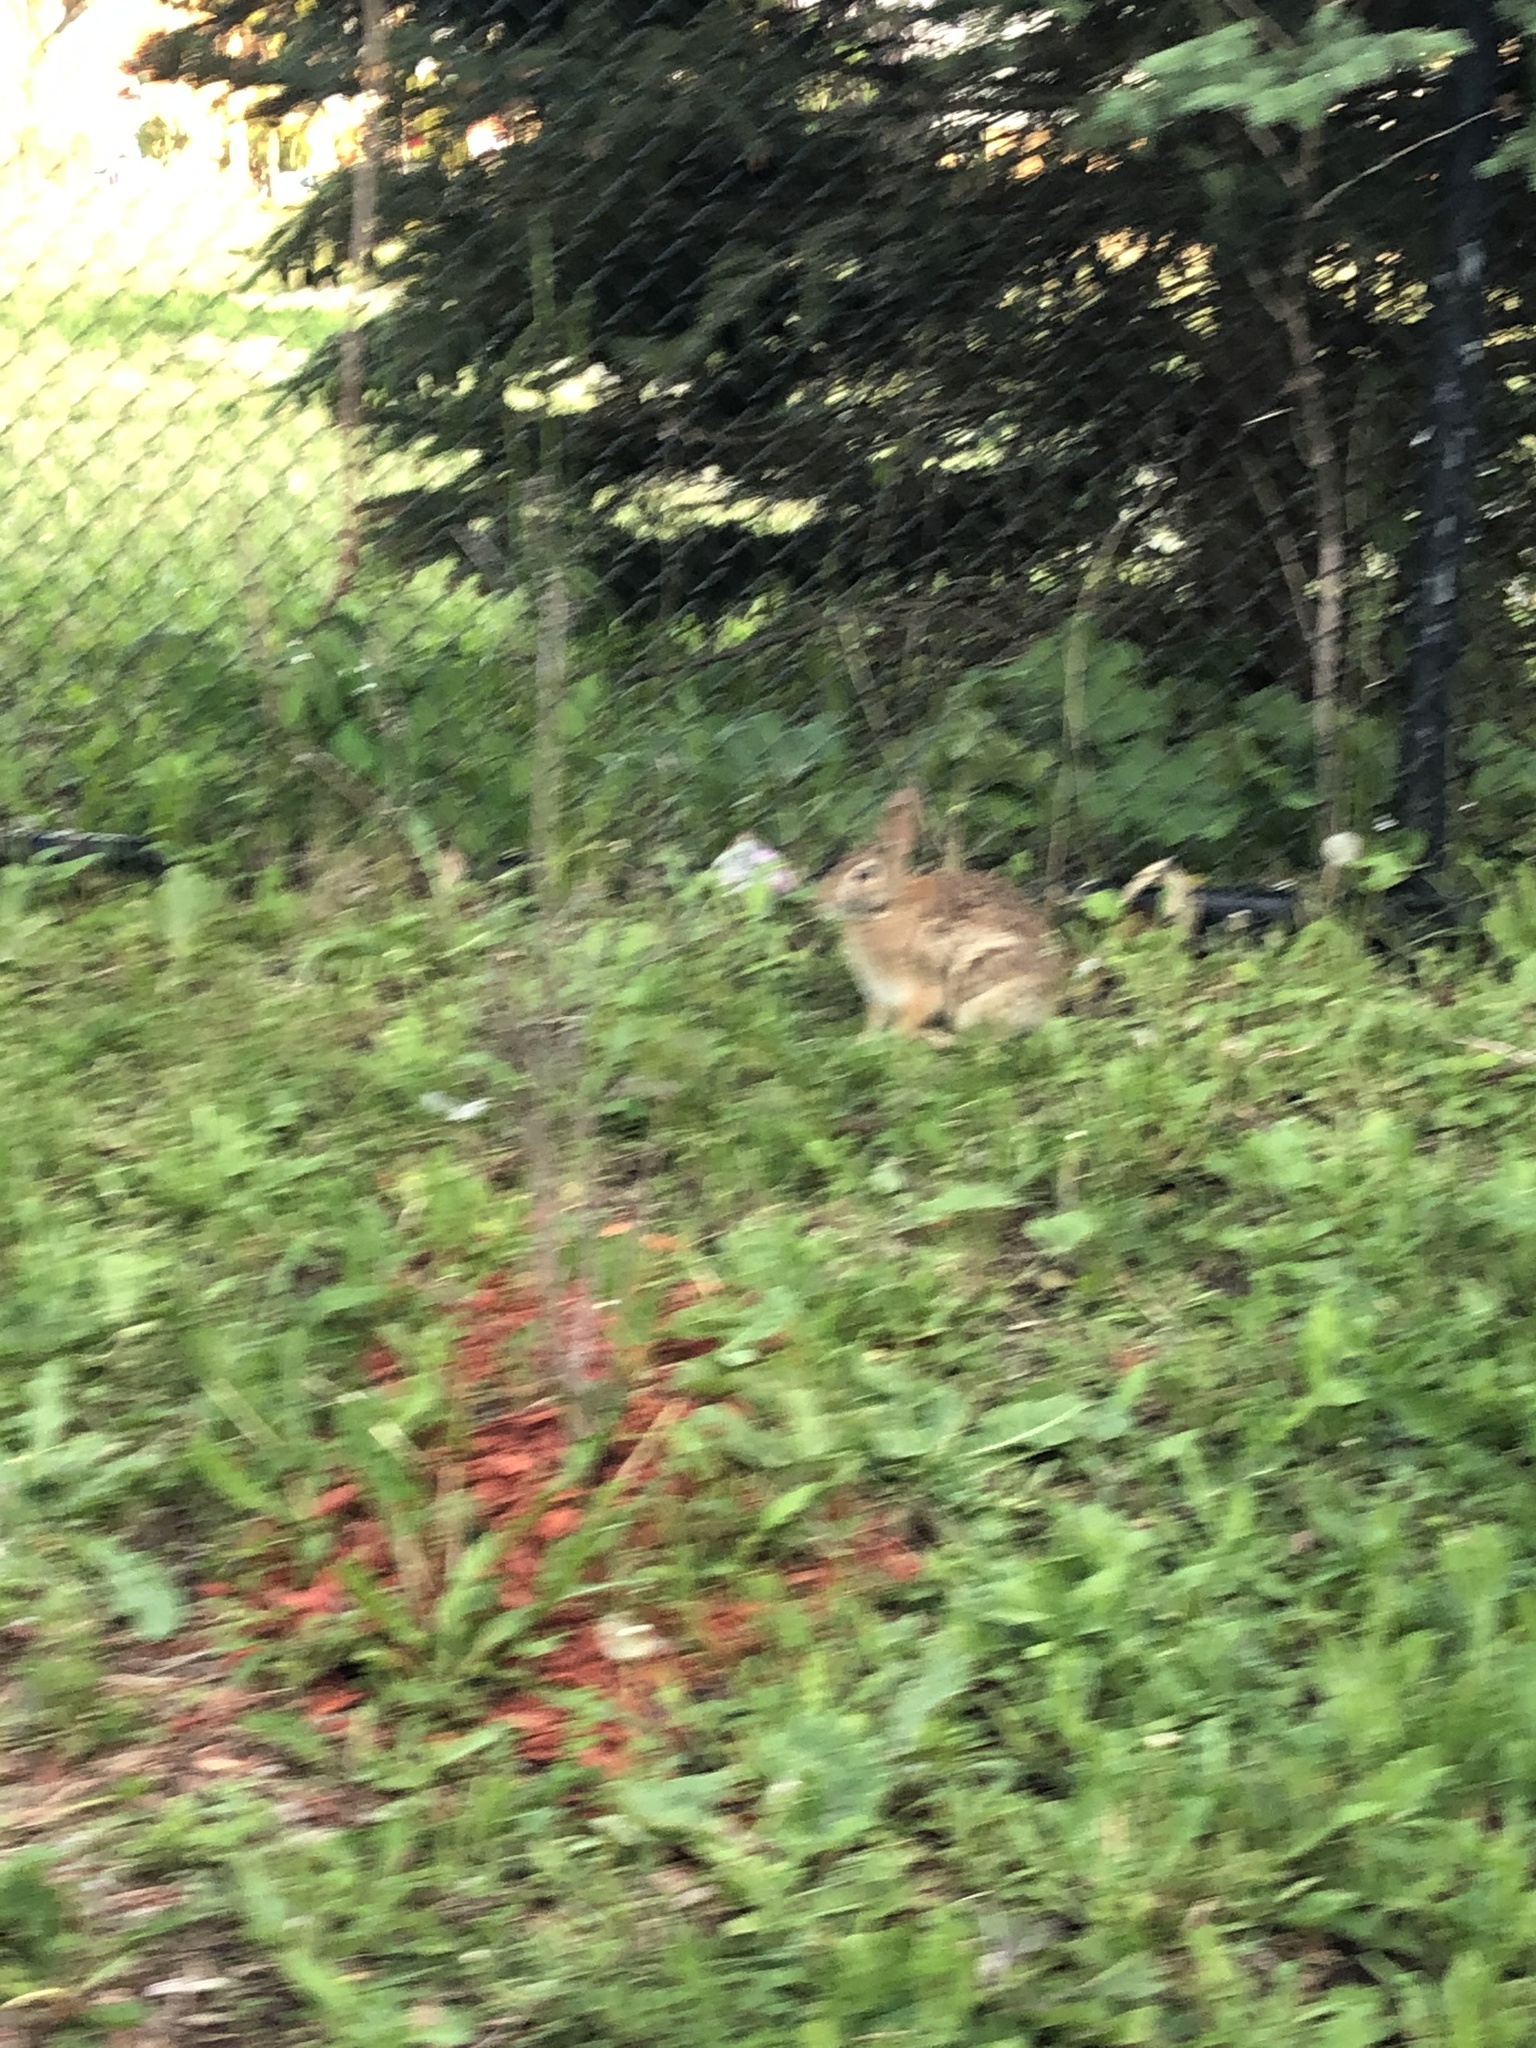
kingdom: Animalia
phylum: Chordata
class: Mammalia
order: Lagomorpha
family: Leporidae
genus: Sylvilagus
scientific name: Sylvilagus floridanus
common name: Eastern cottontail
